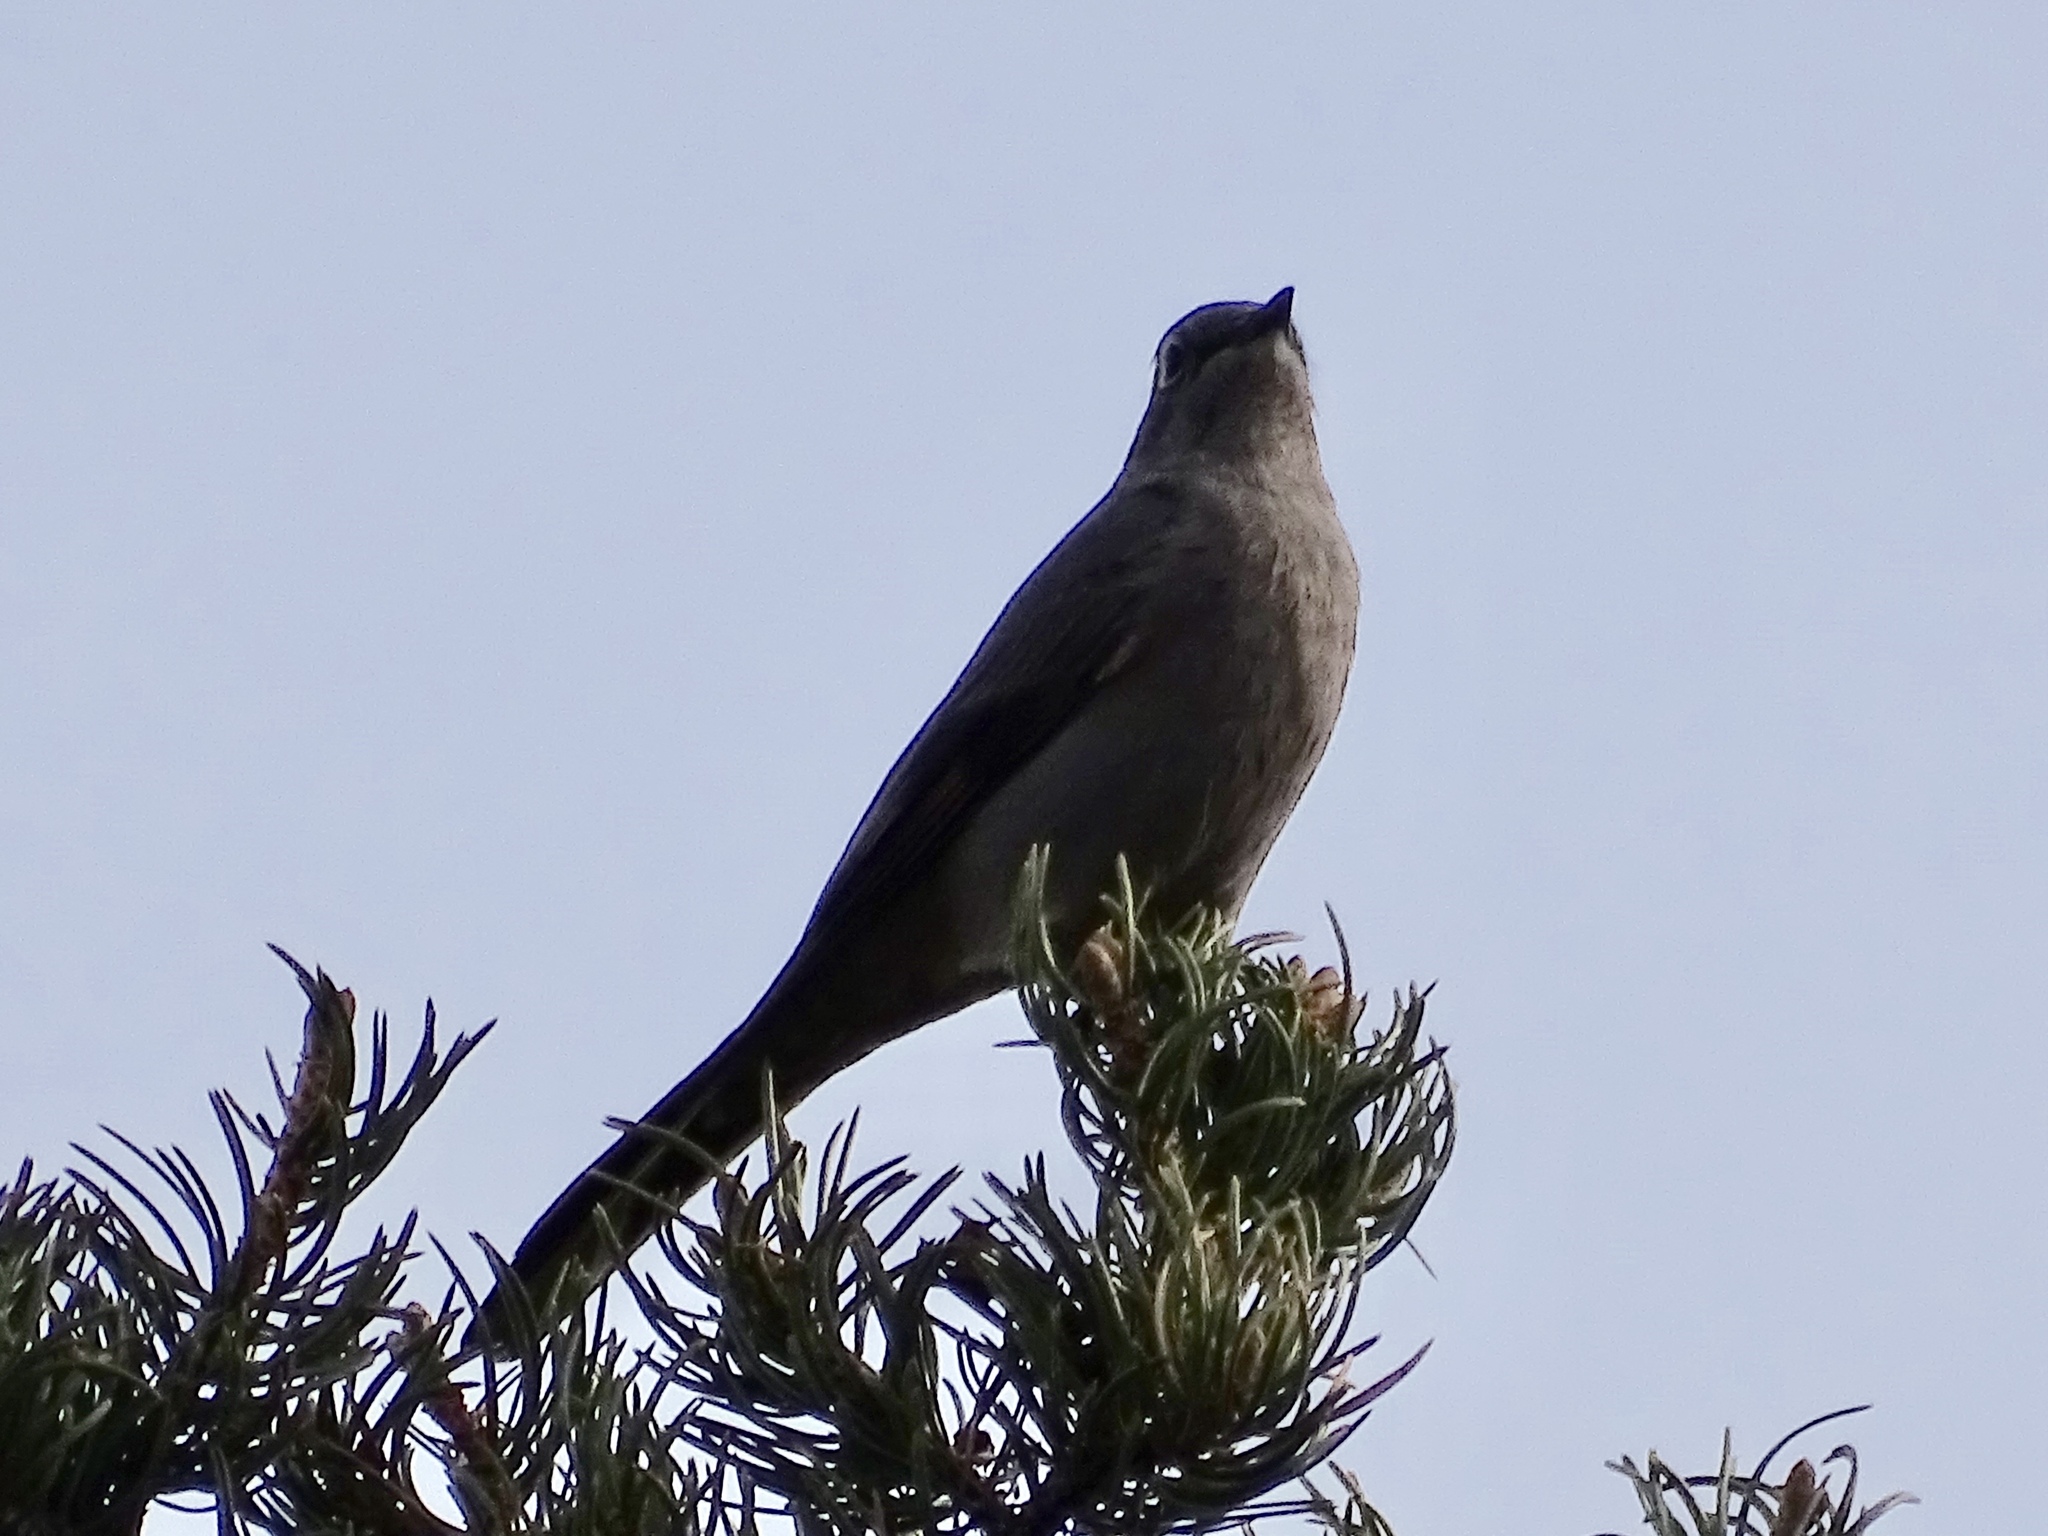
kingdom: Animalia
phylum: Chordata
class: Aves
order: Passeriformes
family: Turdidae
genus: Myadestes
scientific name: Myadestes townsendi
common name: Townsend's solitaire
